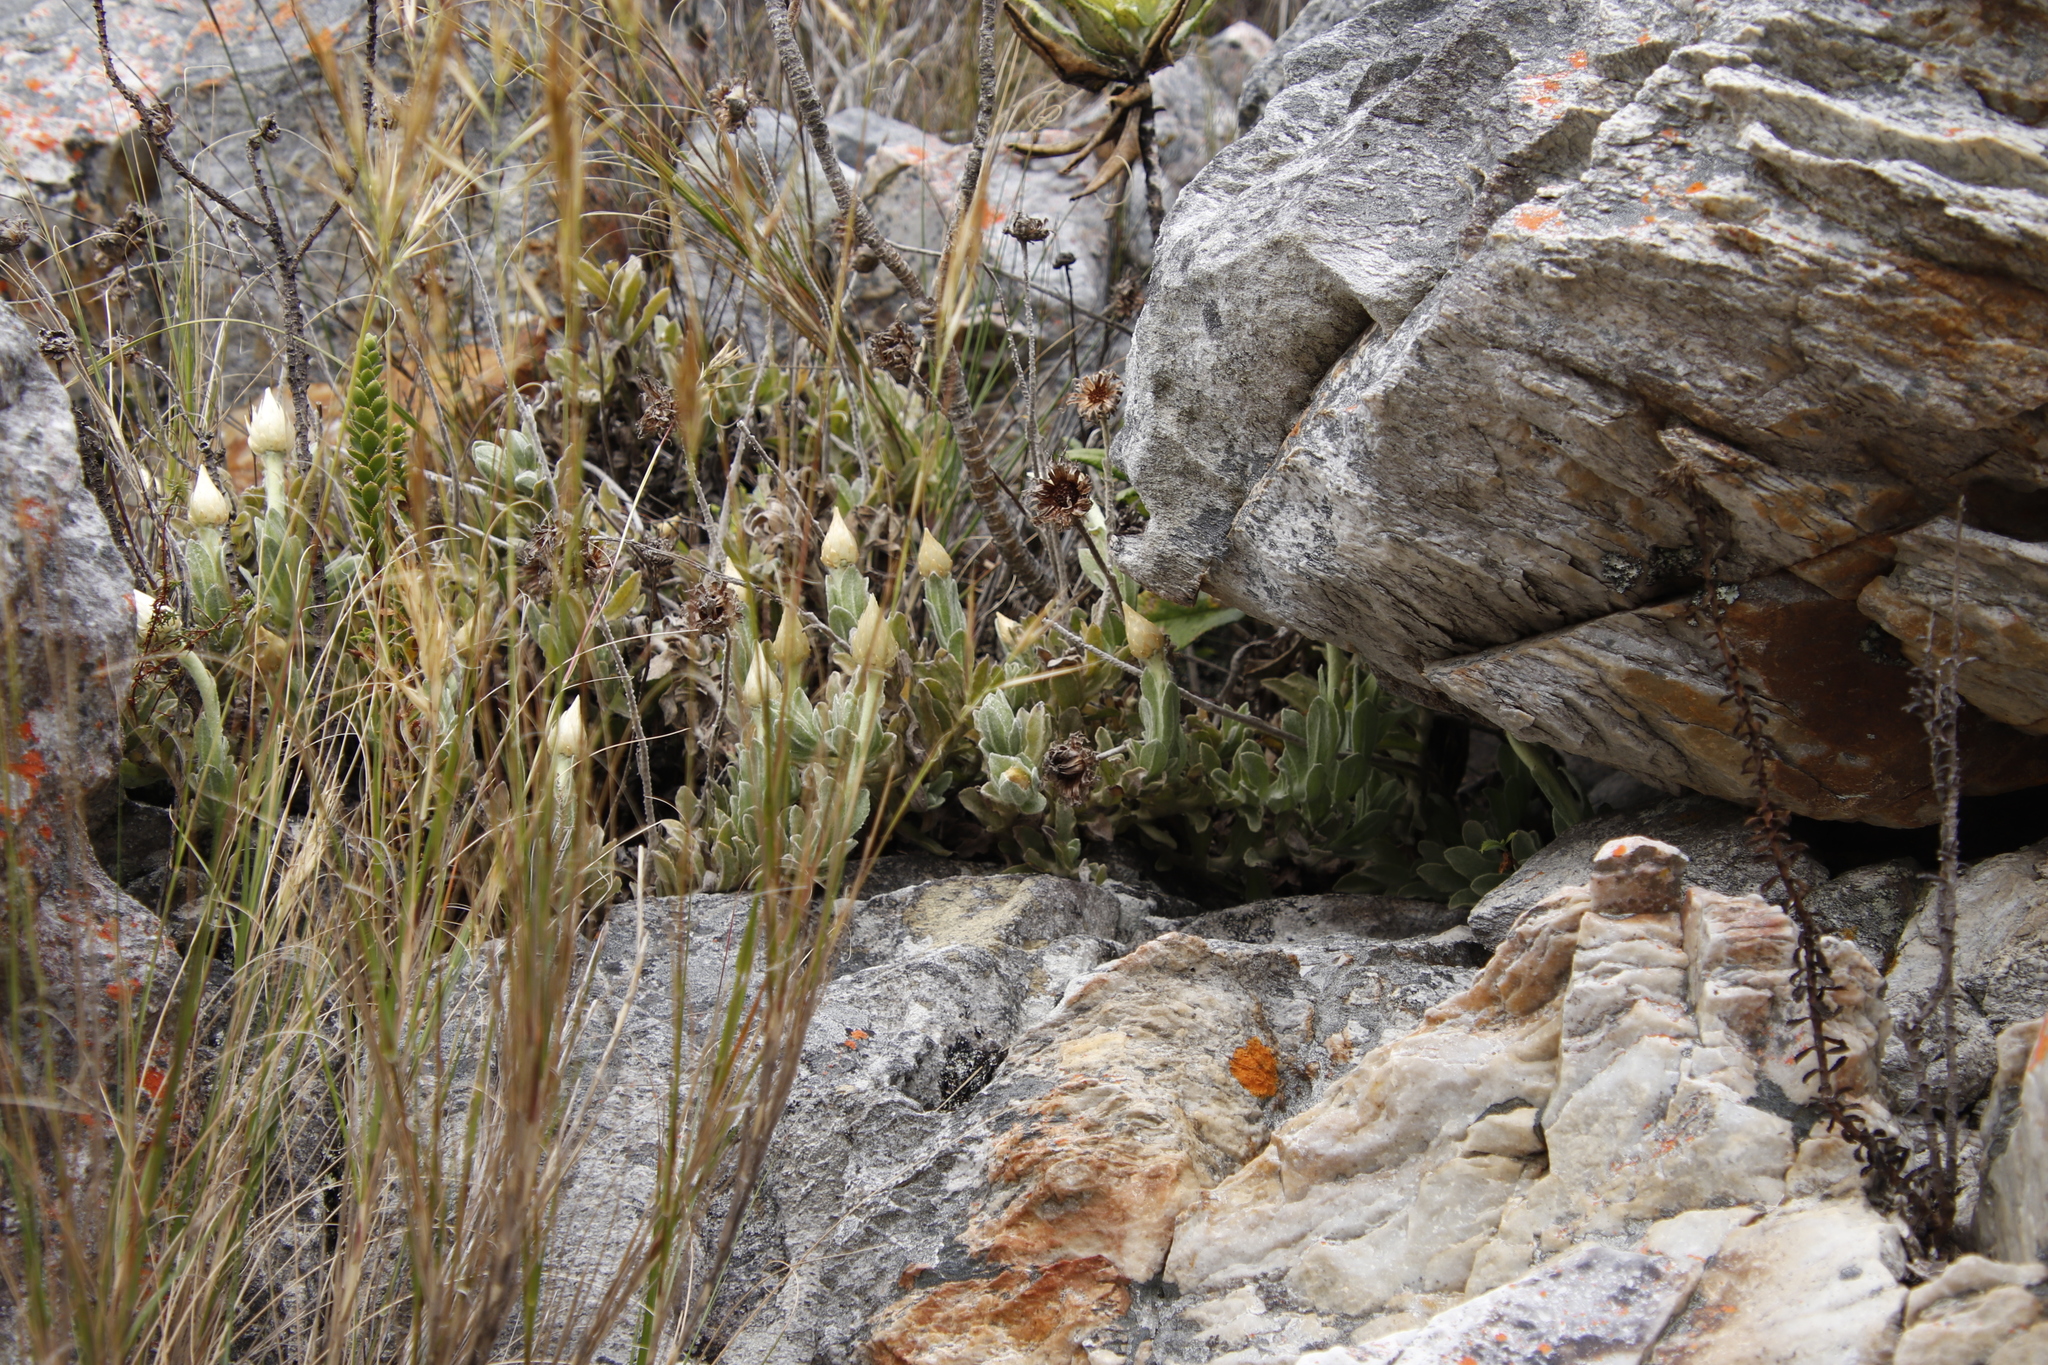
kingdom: Plantae
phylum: Tracheophyta
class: Magnoliopsida
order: Asterales
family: Asteraceae
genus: Syncarpha
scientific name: Syncarpha speciosissima
